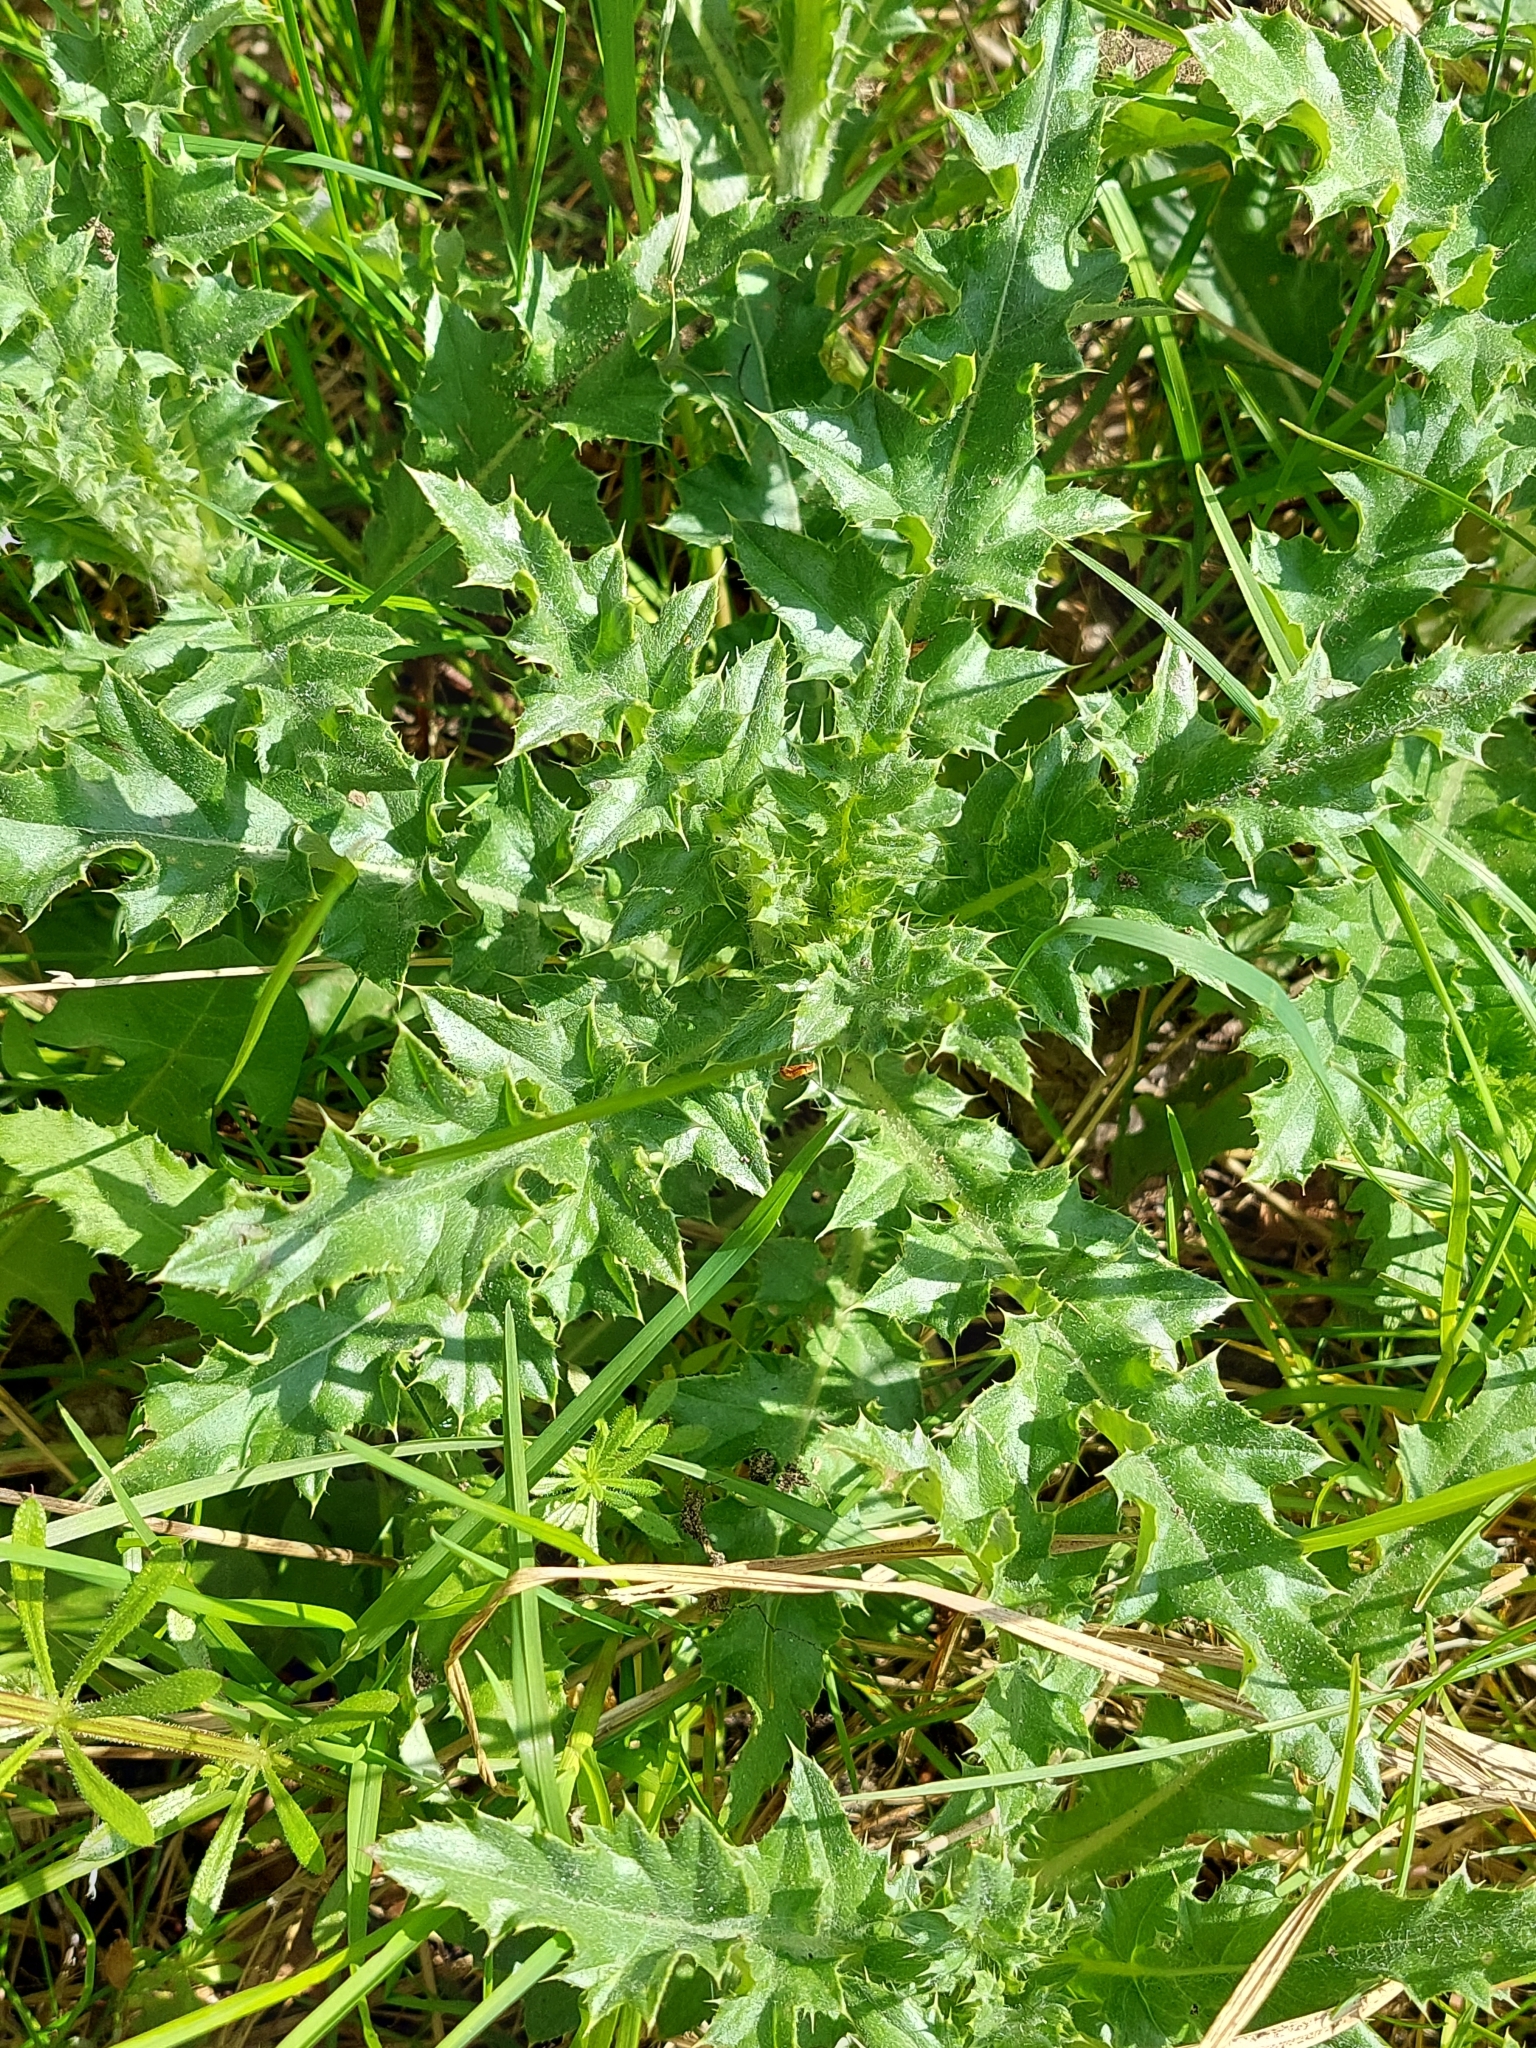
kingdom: Plantae
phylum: Tracheophyta
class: Magnoliopsida
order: Asterales
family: Asteraceae
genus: Cirsium
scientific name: Cirsium arvense
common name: Creeping thistle
